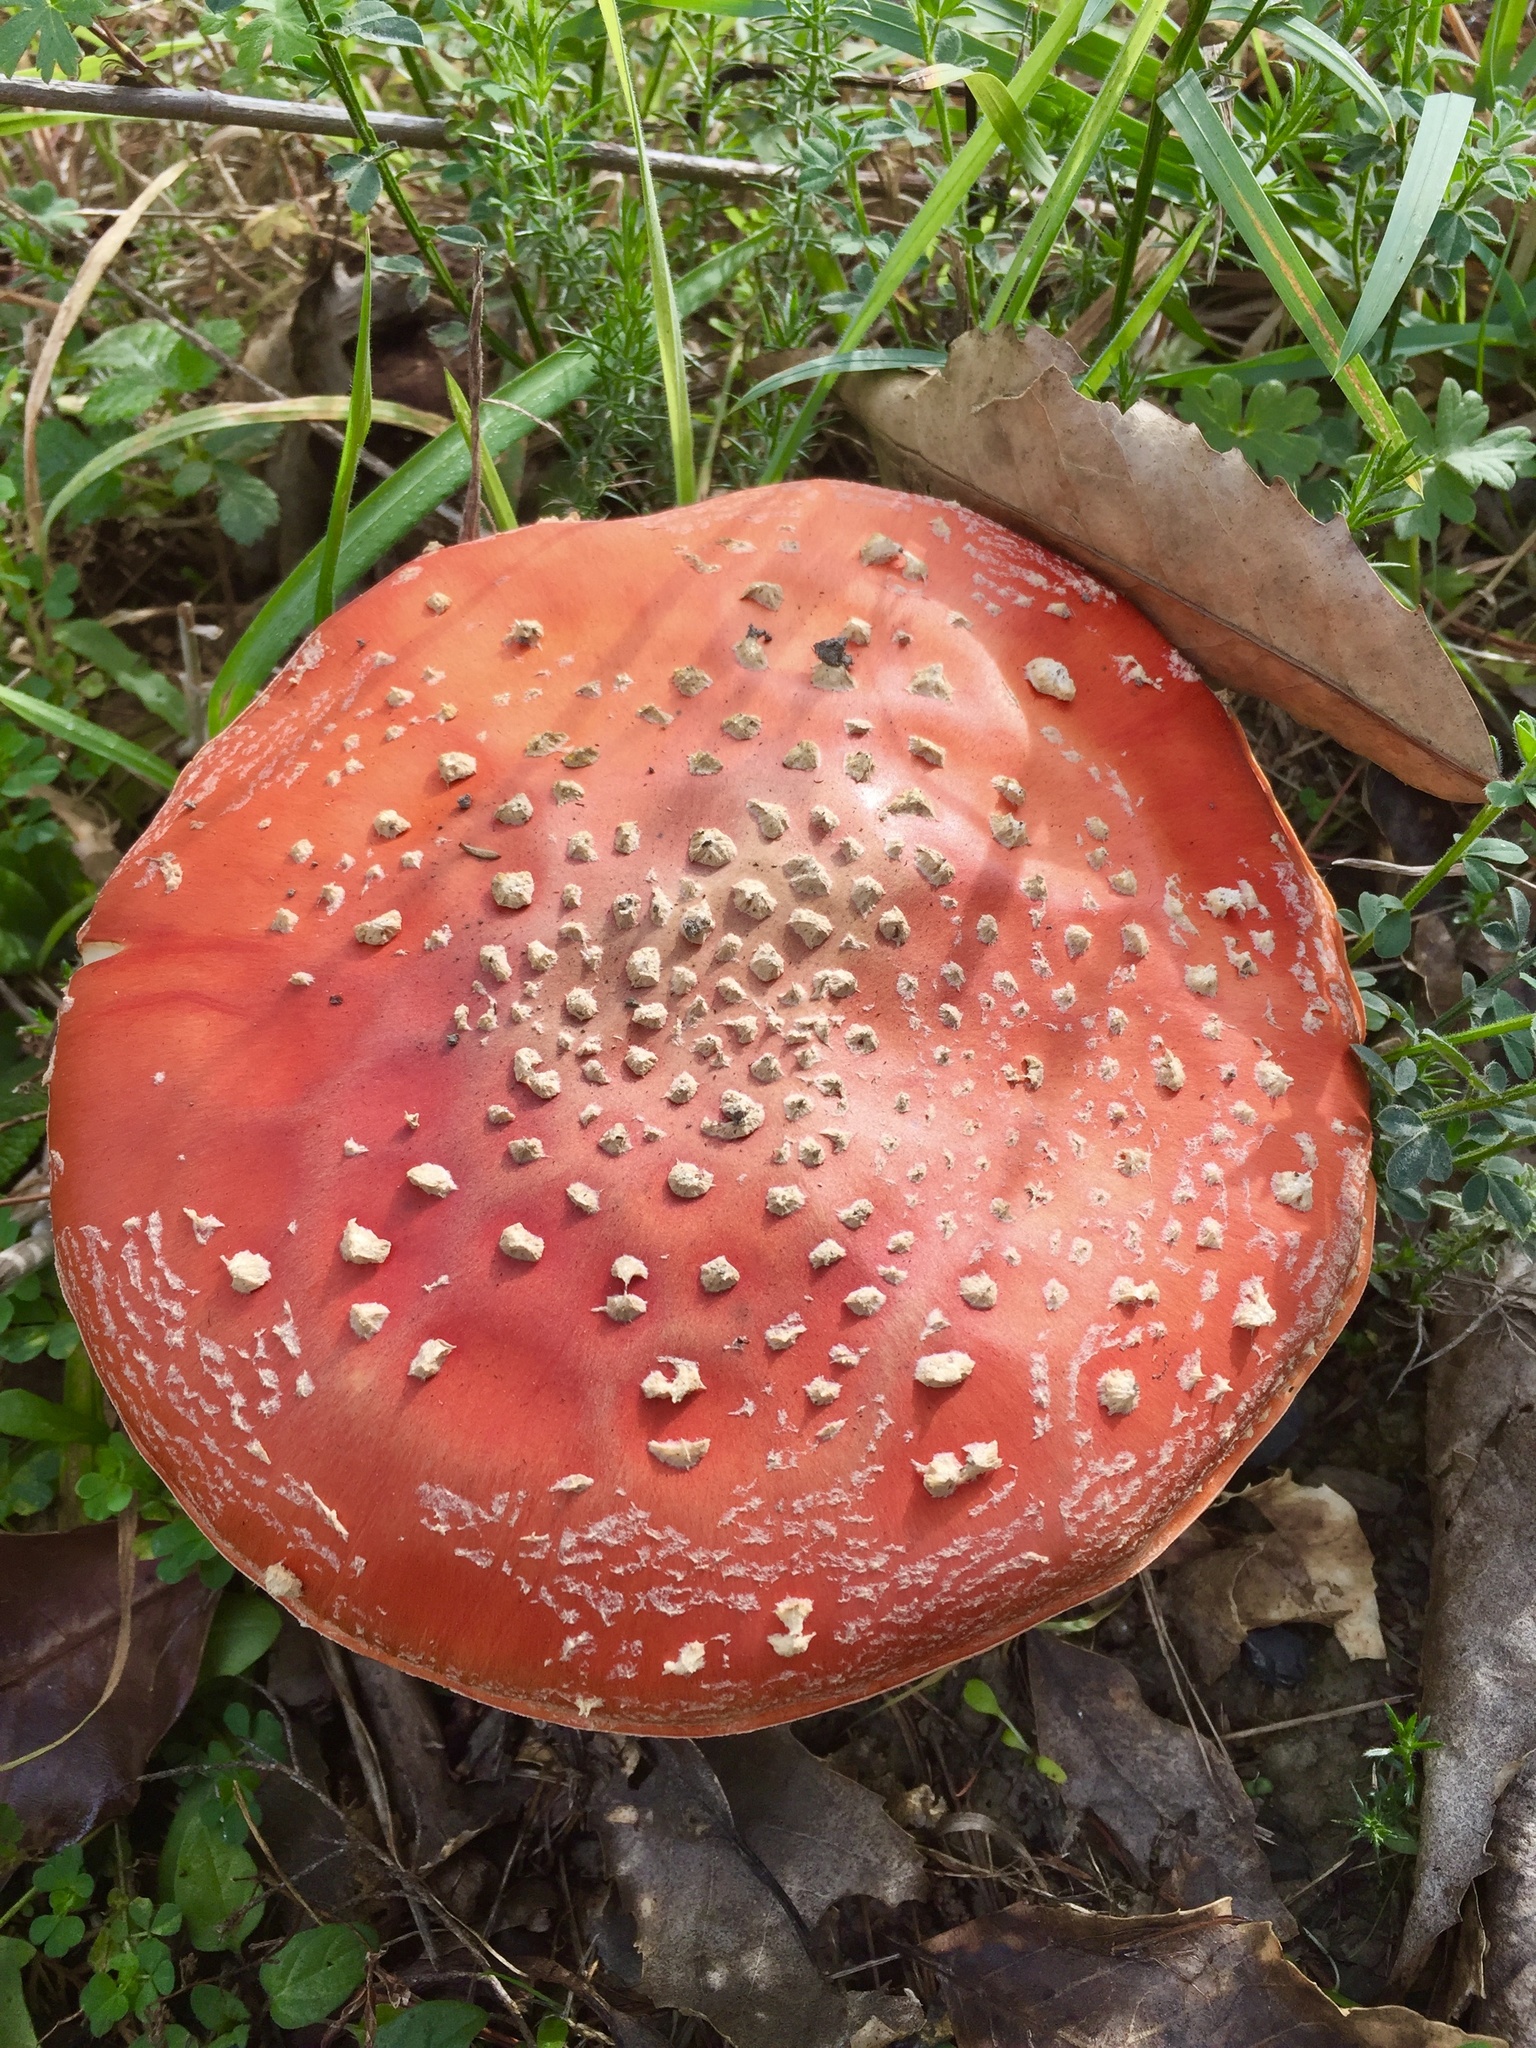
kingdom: Fungi
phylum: Basidiomycota
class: Agaricomycetes
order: Agaricales
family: Amanitaceae
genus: Amanita
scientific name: Amanita muscaria
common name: Fly agaric
